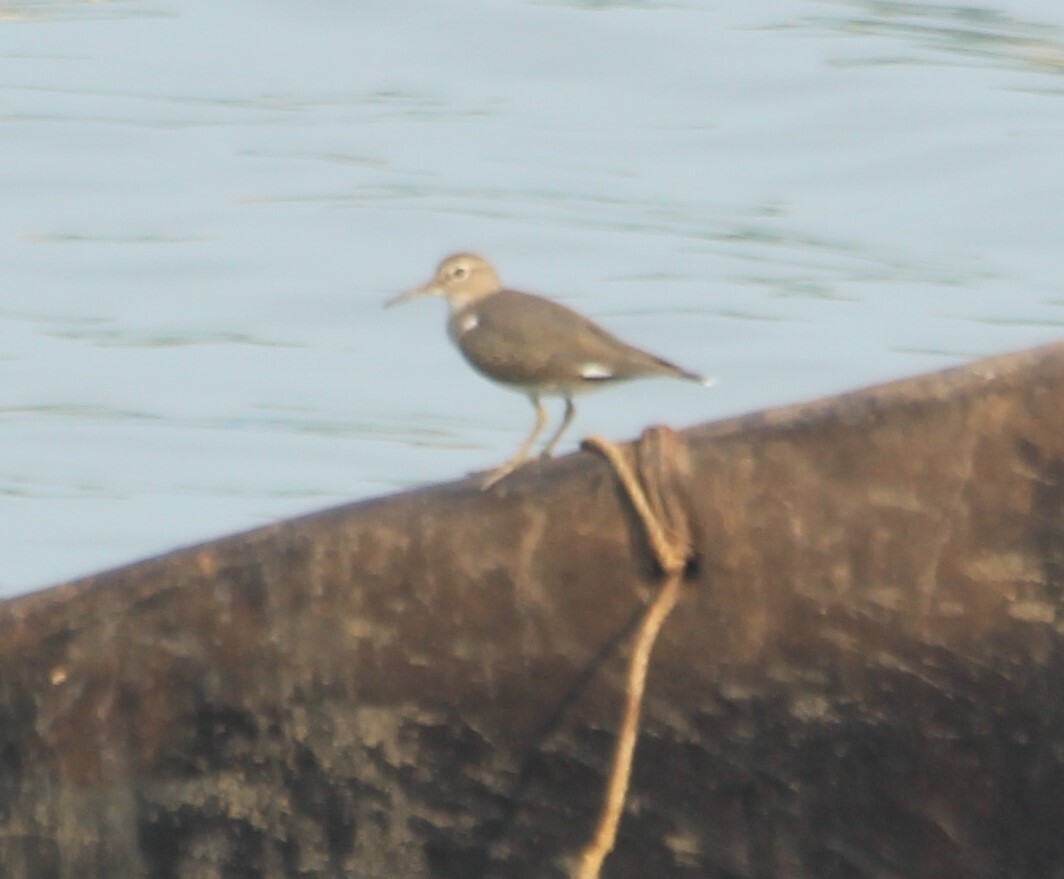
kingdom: Animalia
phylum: Chordata
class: Aves
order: Charadriiformes
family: Scolopacidae
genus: Actitis
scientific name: Actitis hypoleucos
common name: Common sandpiper
